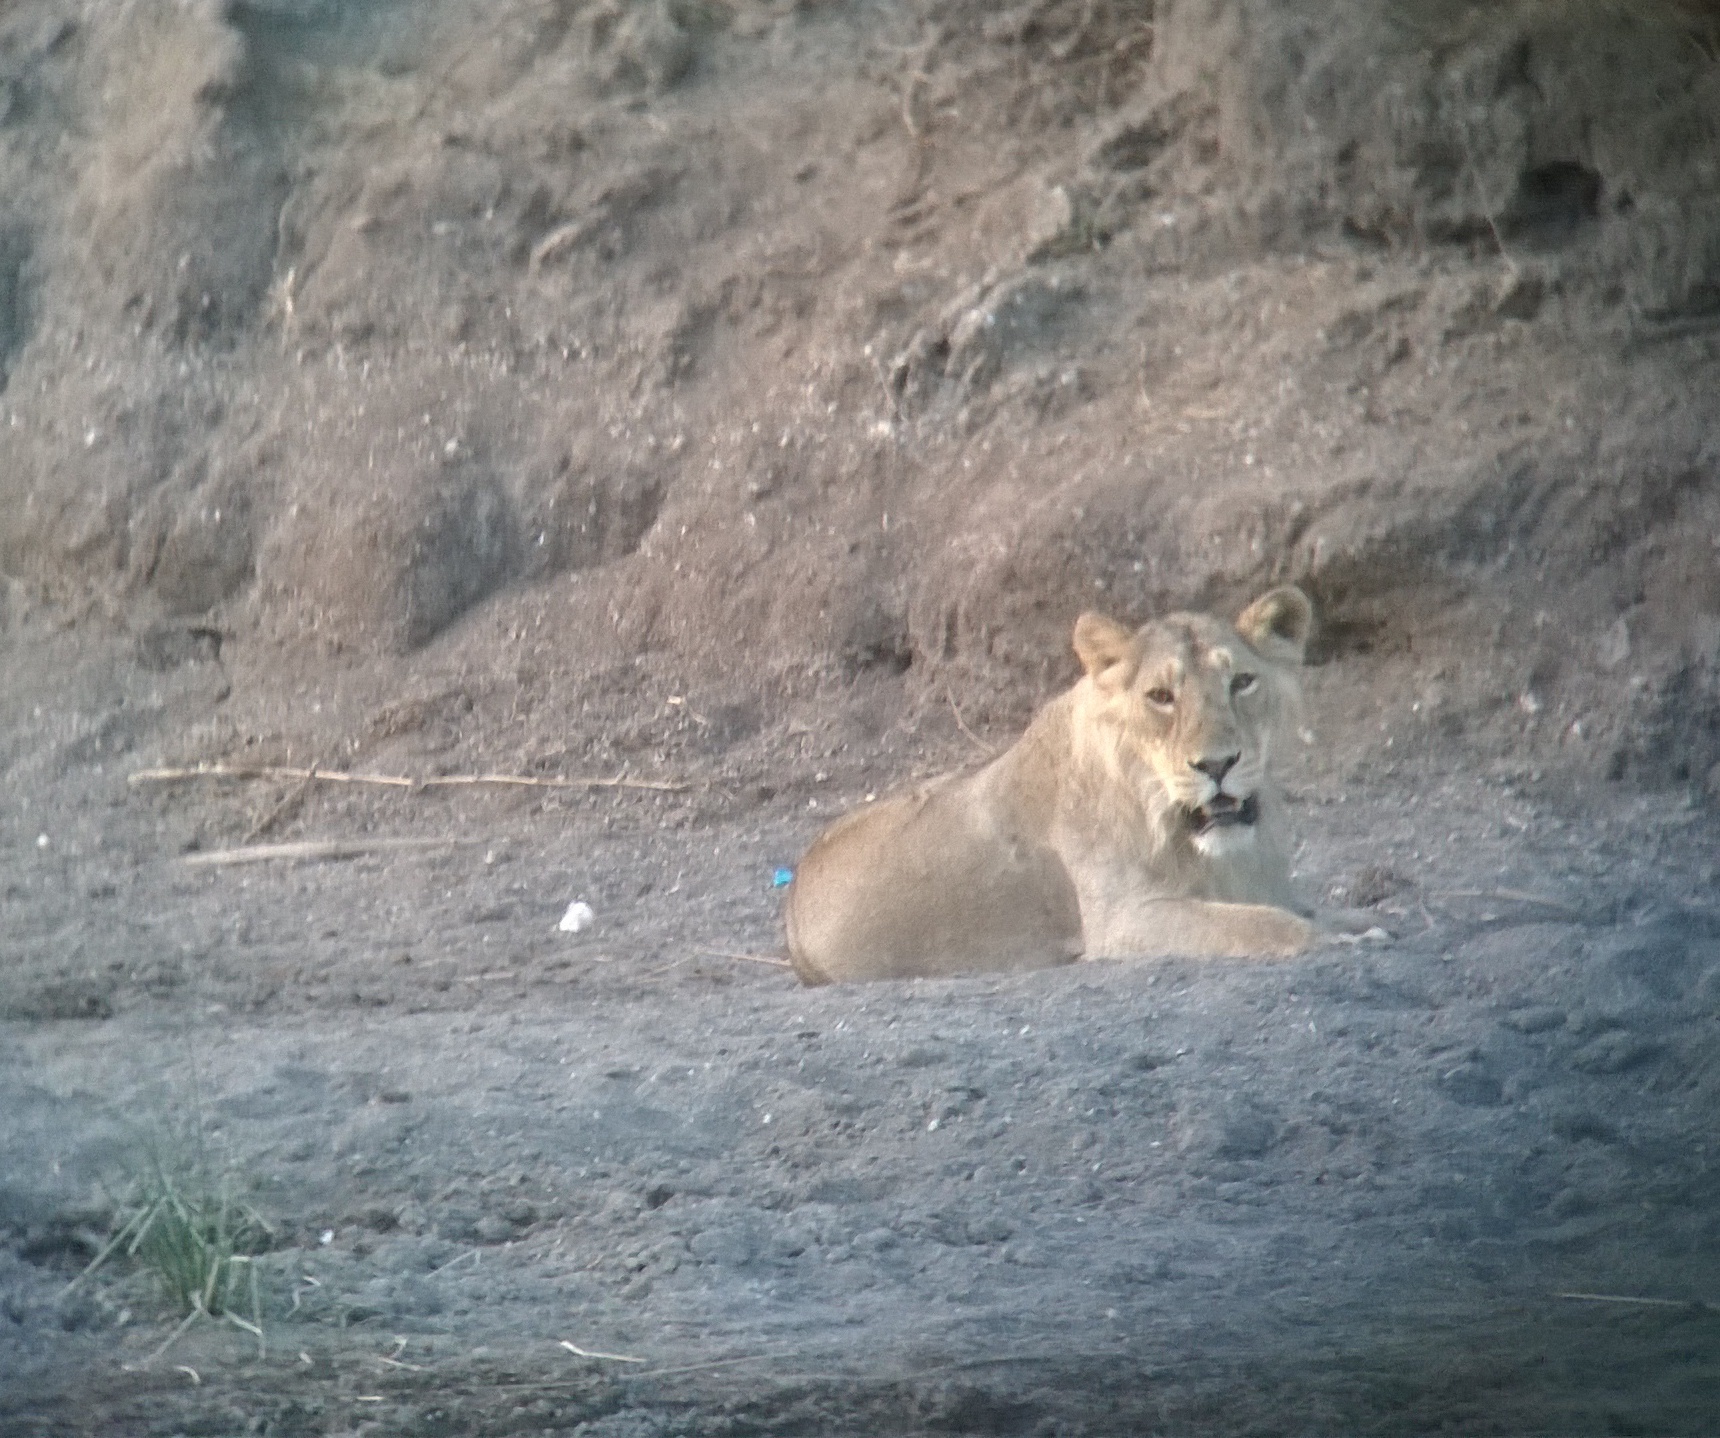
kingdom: Animalia
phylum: Chordata
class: Mammalia
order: Carnivora
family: Felidae
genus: Panthera
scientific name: Panthera leo
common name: Lion
